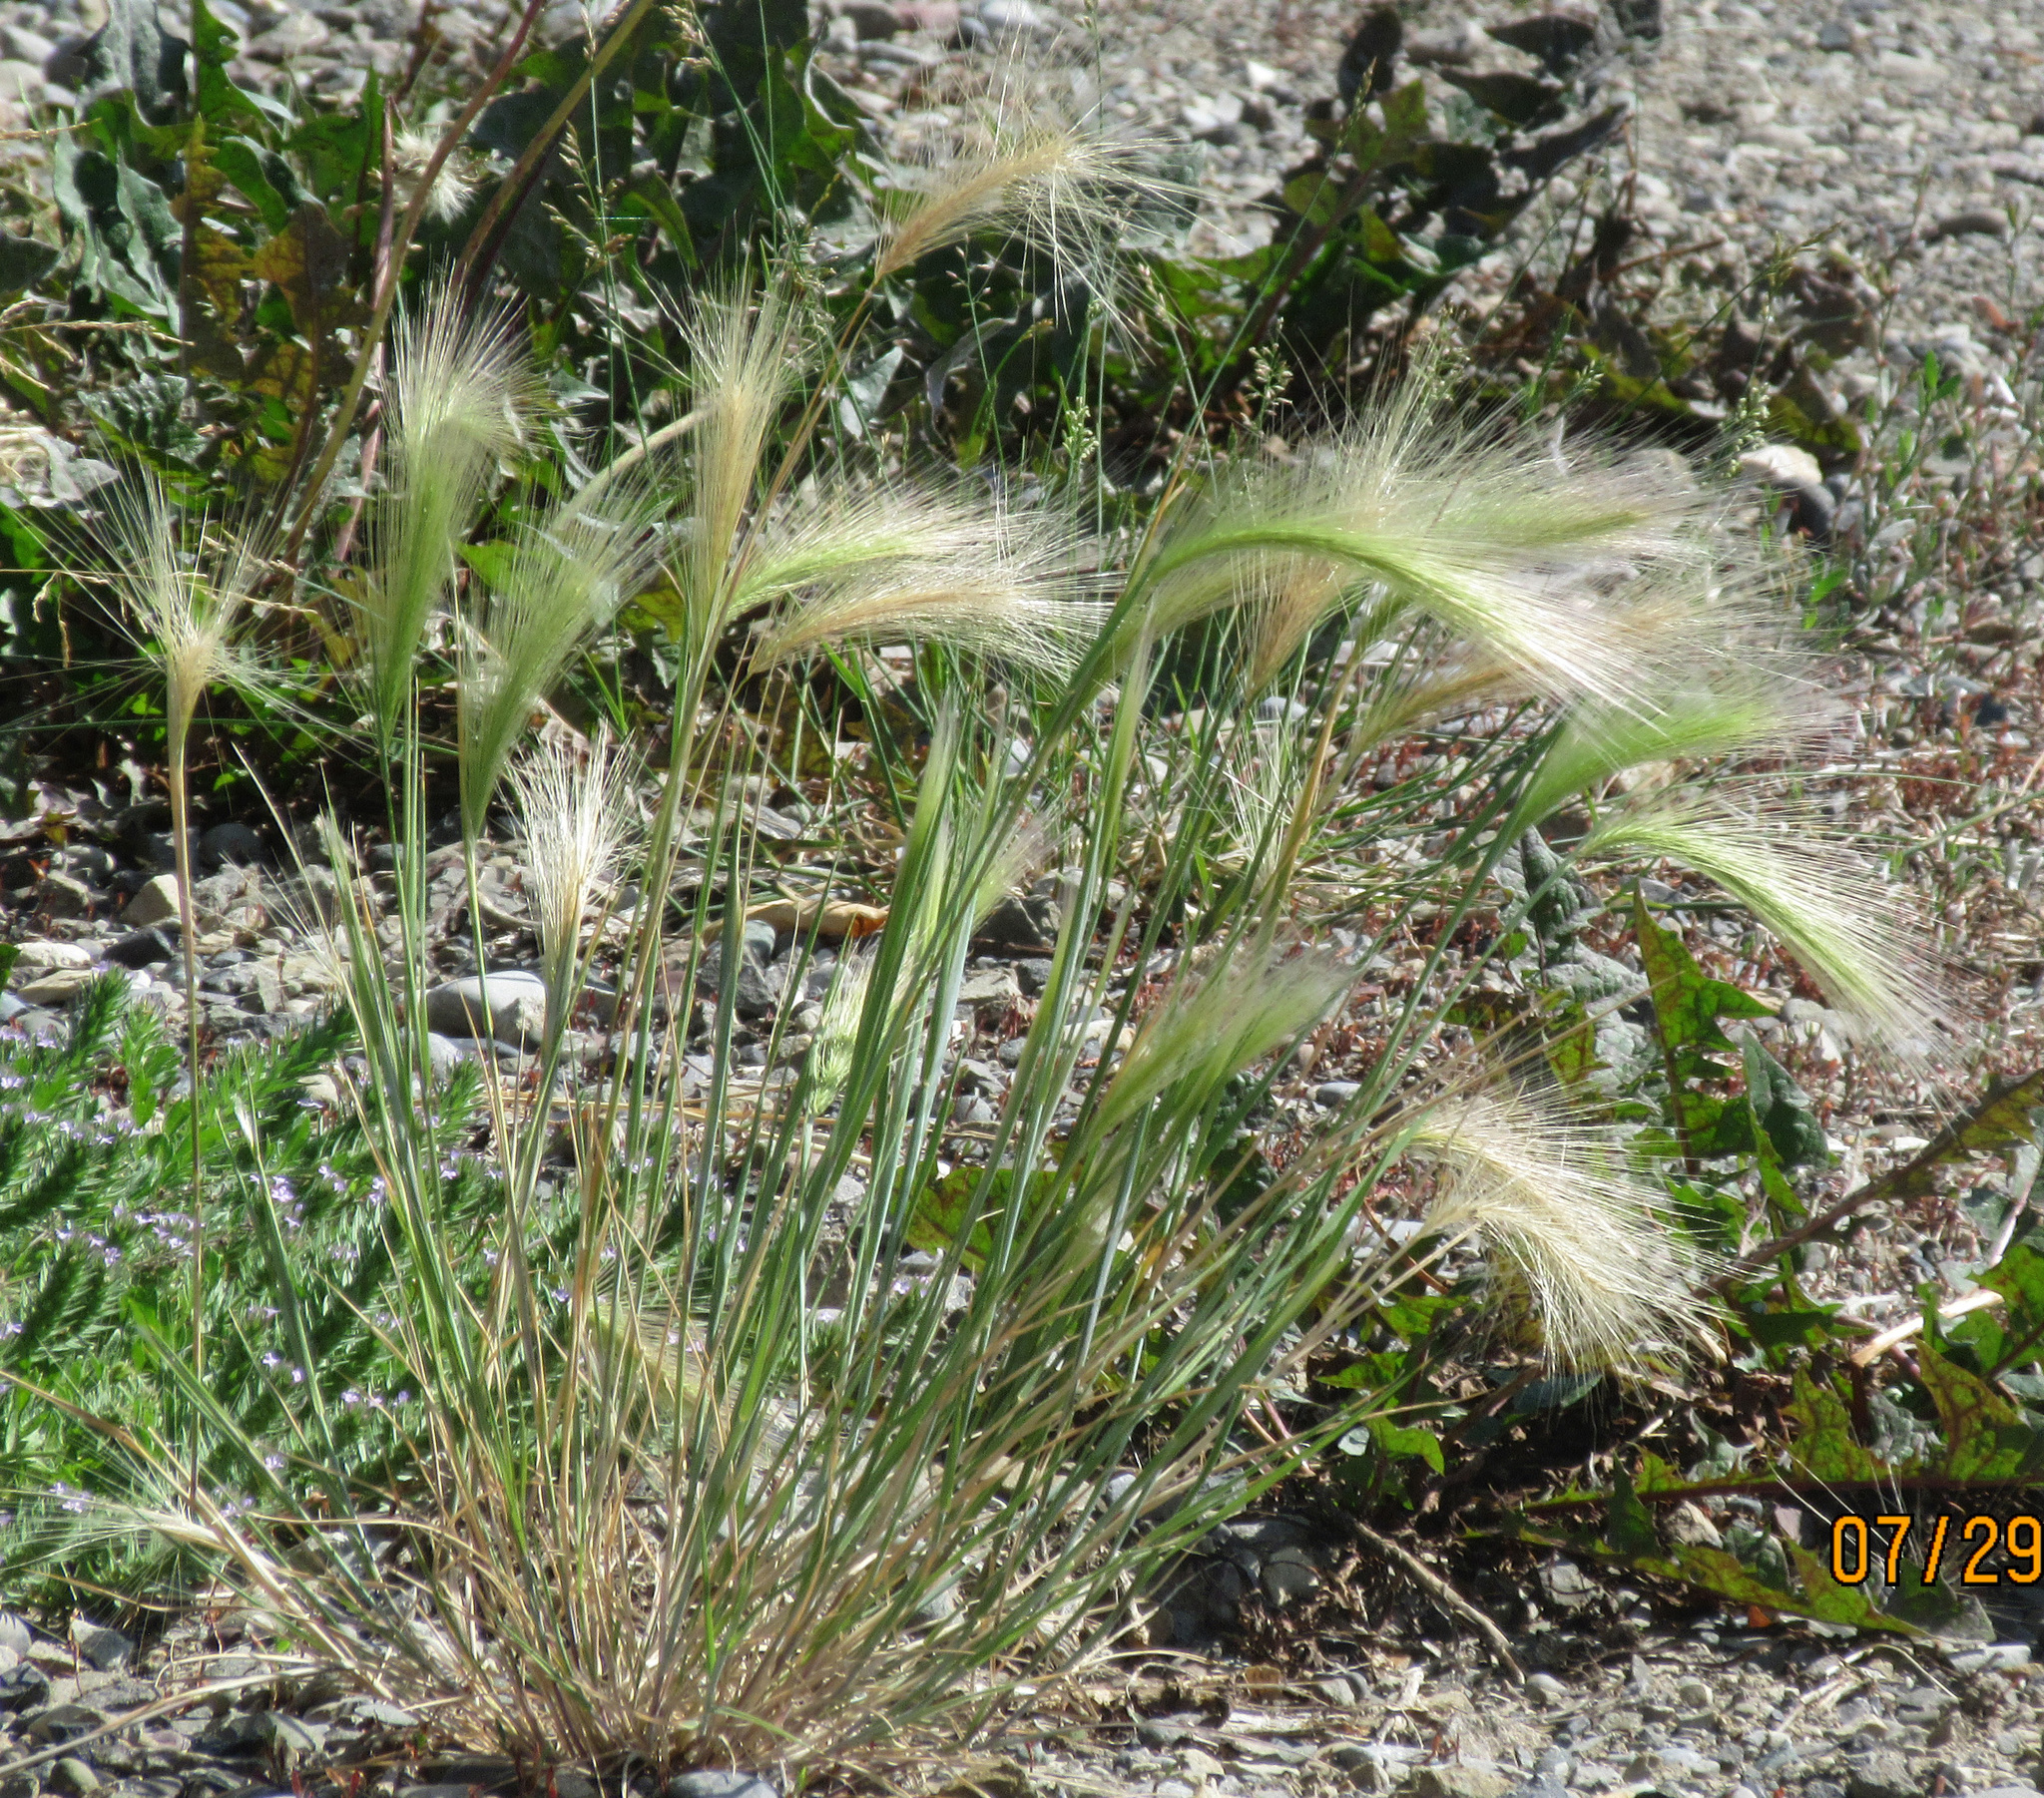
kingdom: Plantae
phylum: Tracheophyta
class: Liliopsida
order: Poales
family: Poaceae
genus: Hordeum
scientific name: Hordeum jubatum
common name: Foxtail barley
